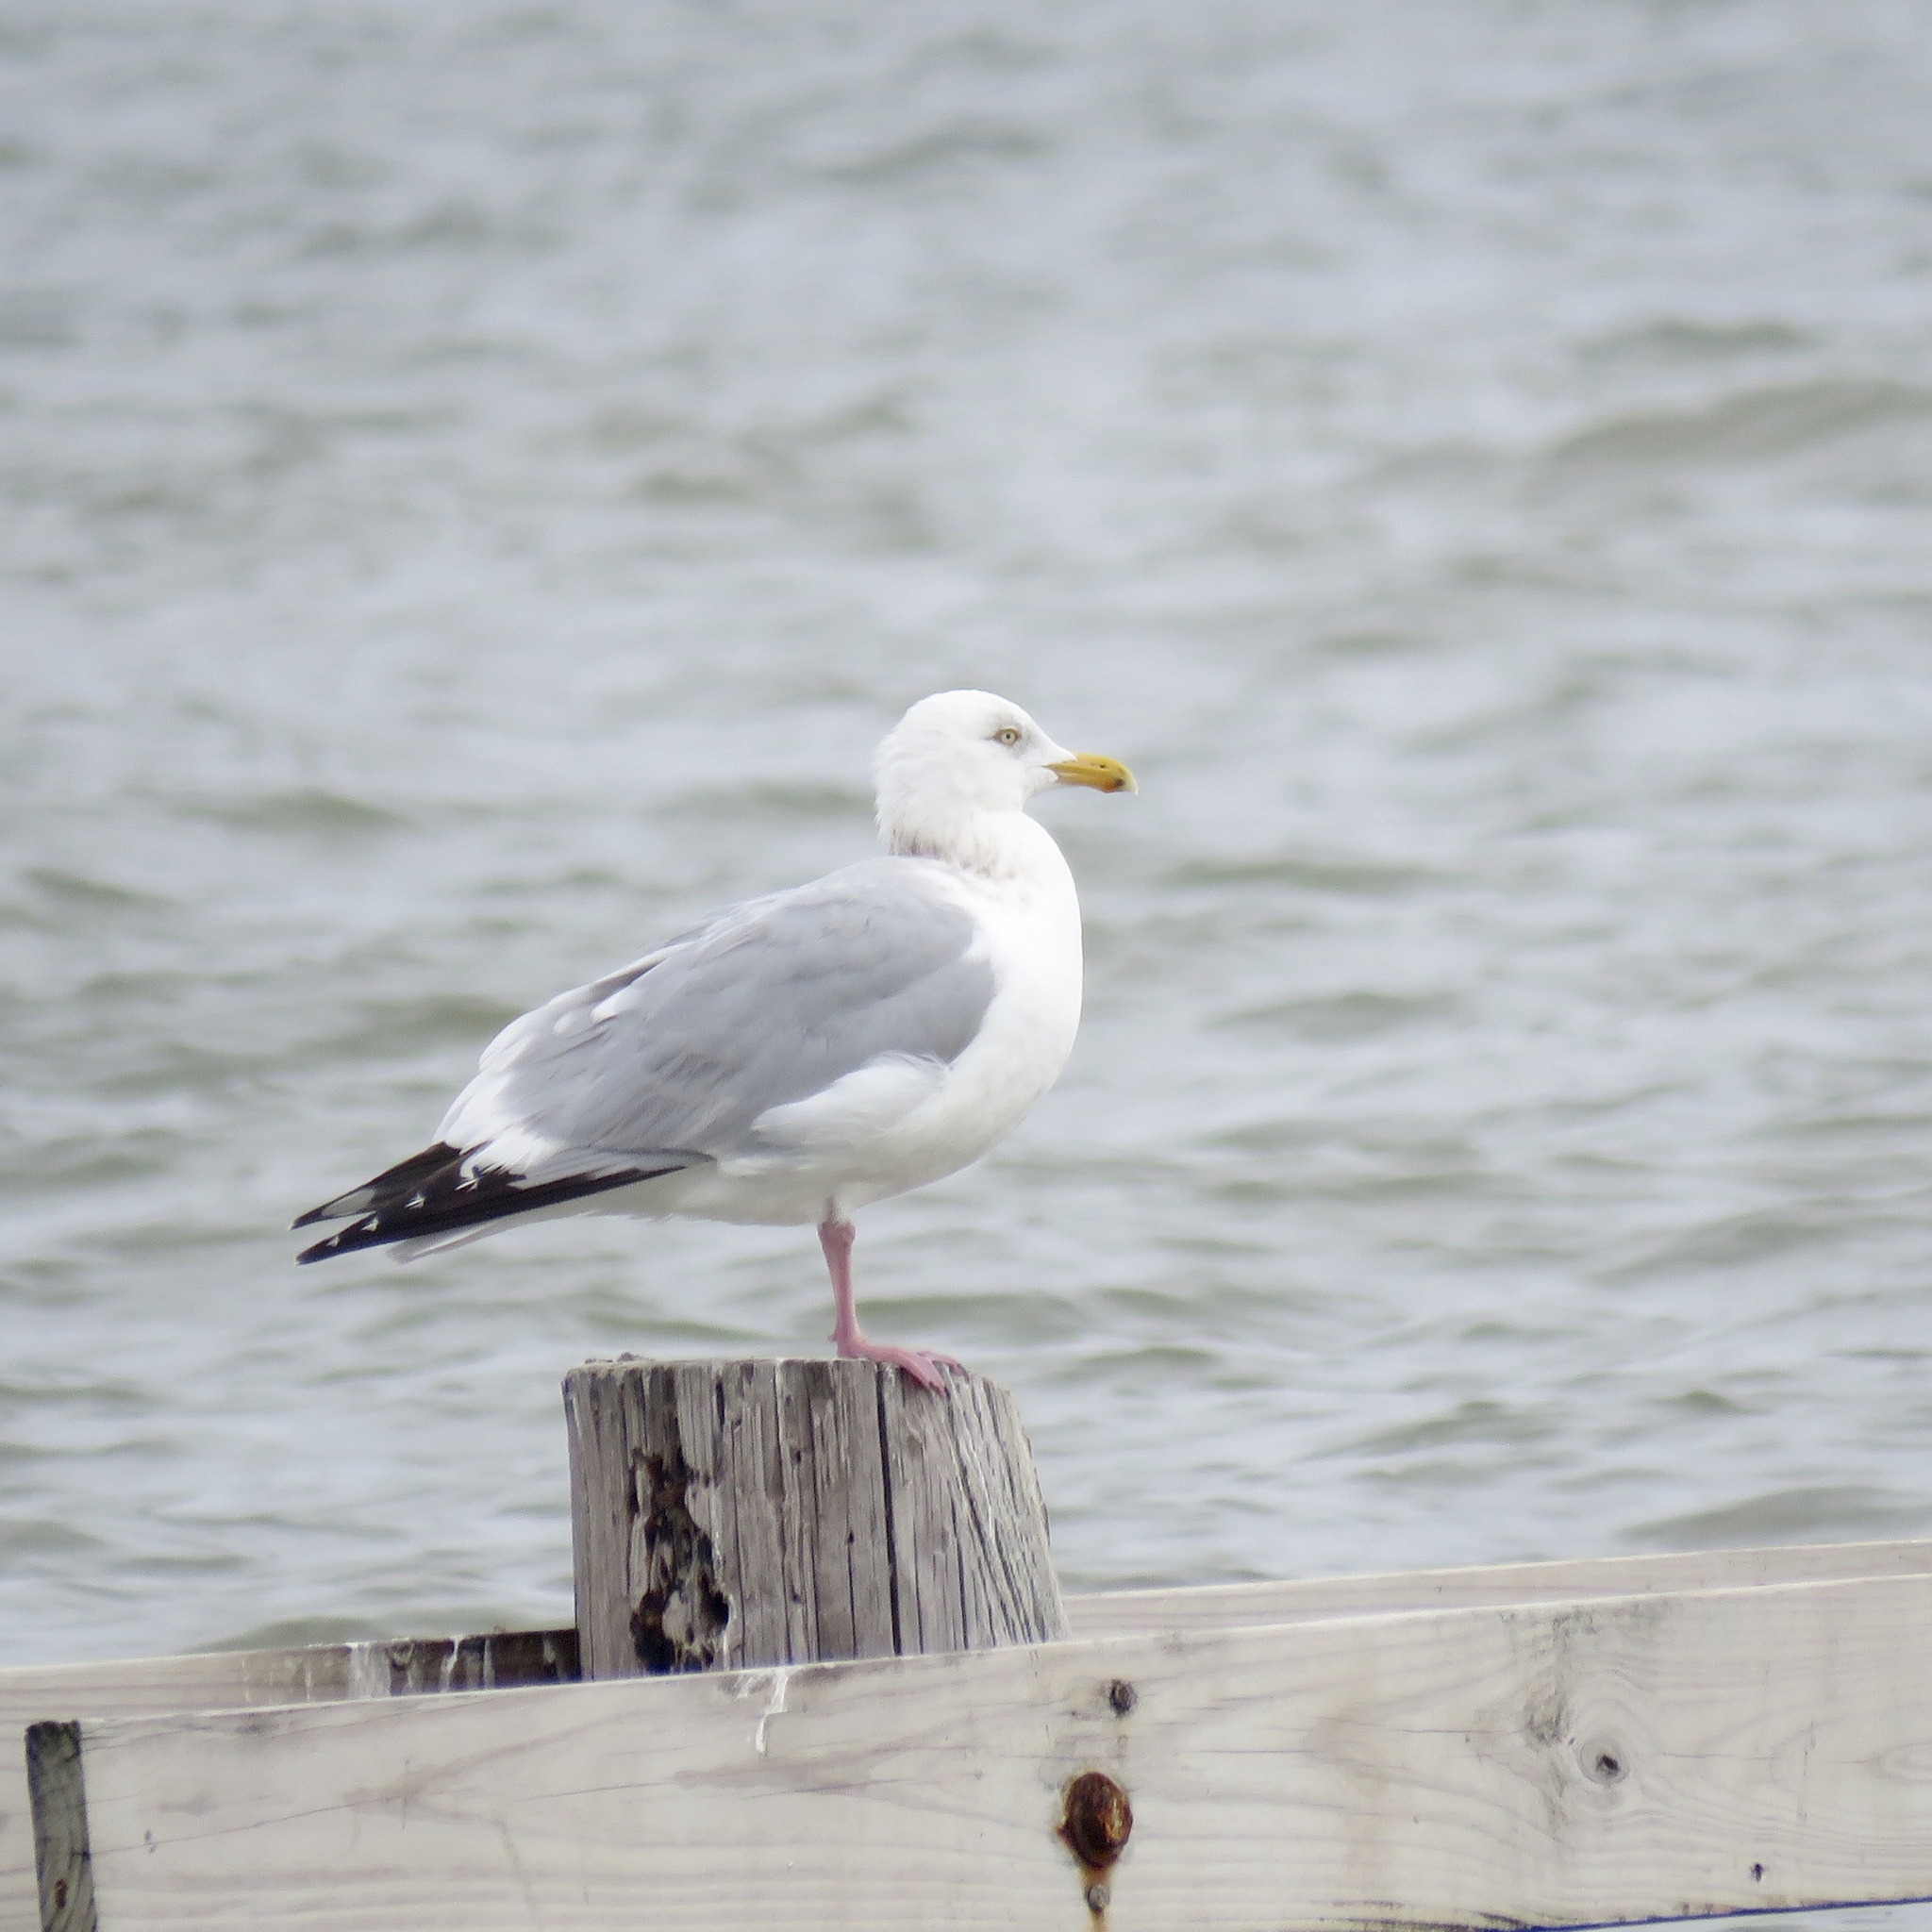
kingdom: Animalia
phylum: Chordata
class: Aves
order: Charadriiformes
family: Laridae
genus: Larus
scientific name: Larus argentatus
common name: Herring gull
